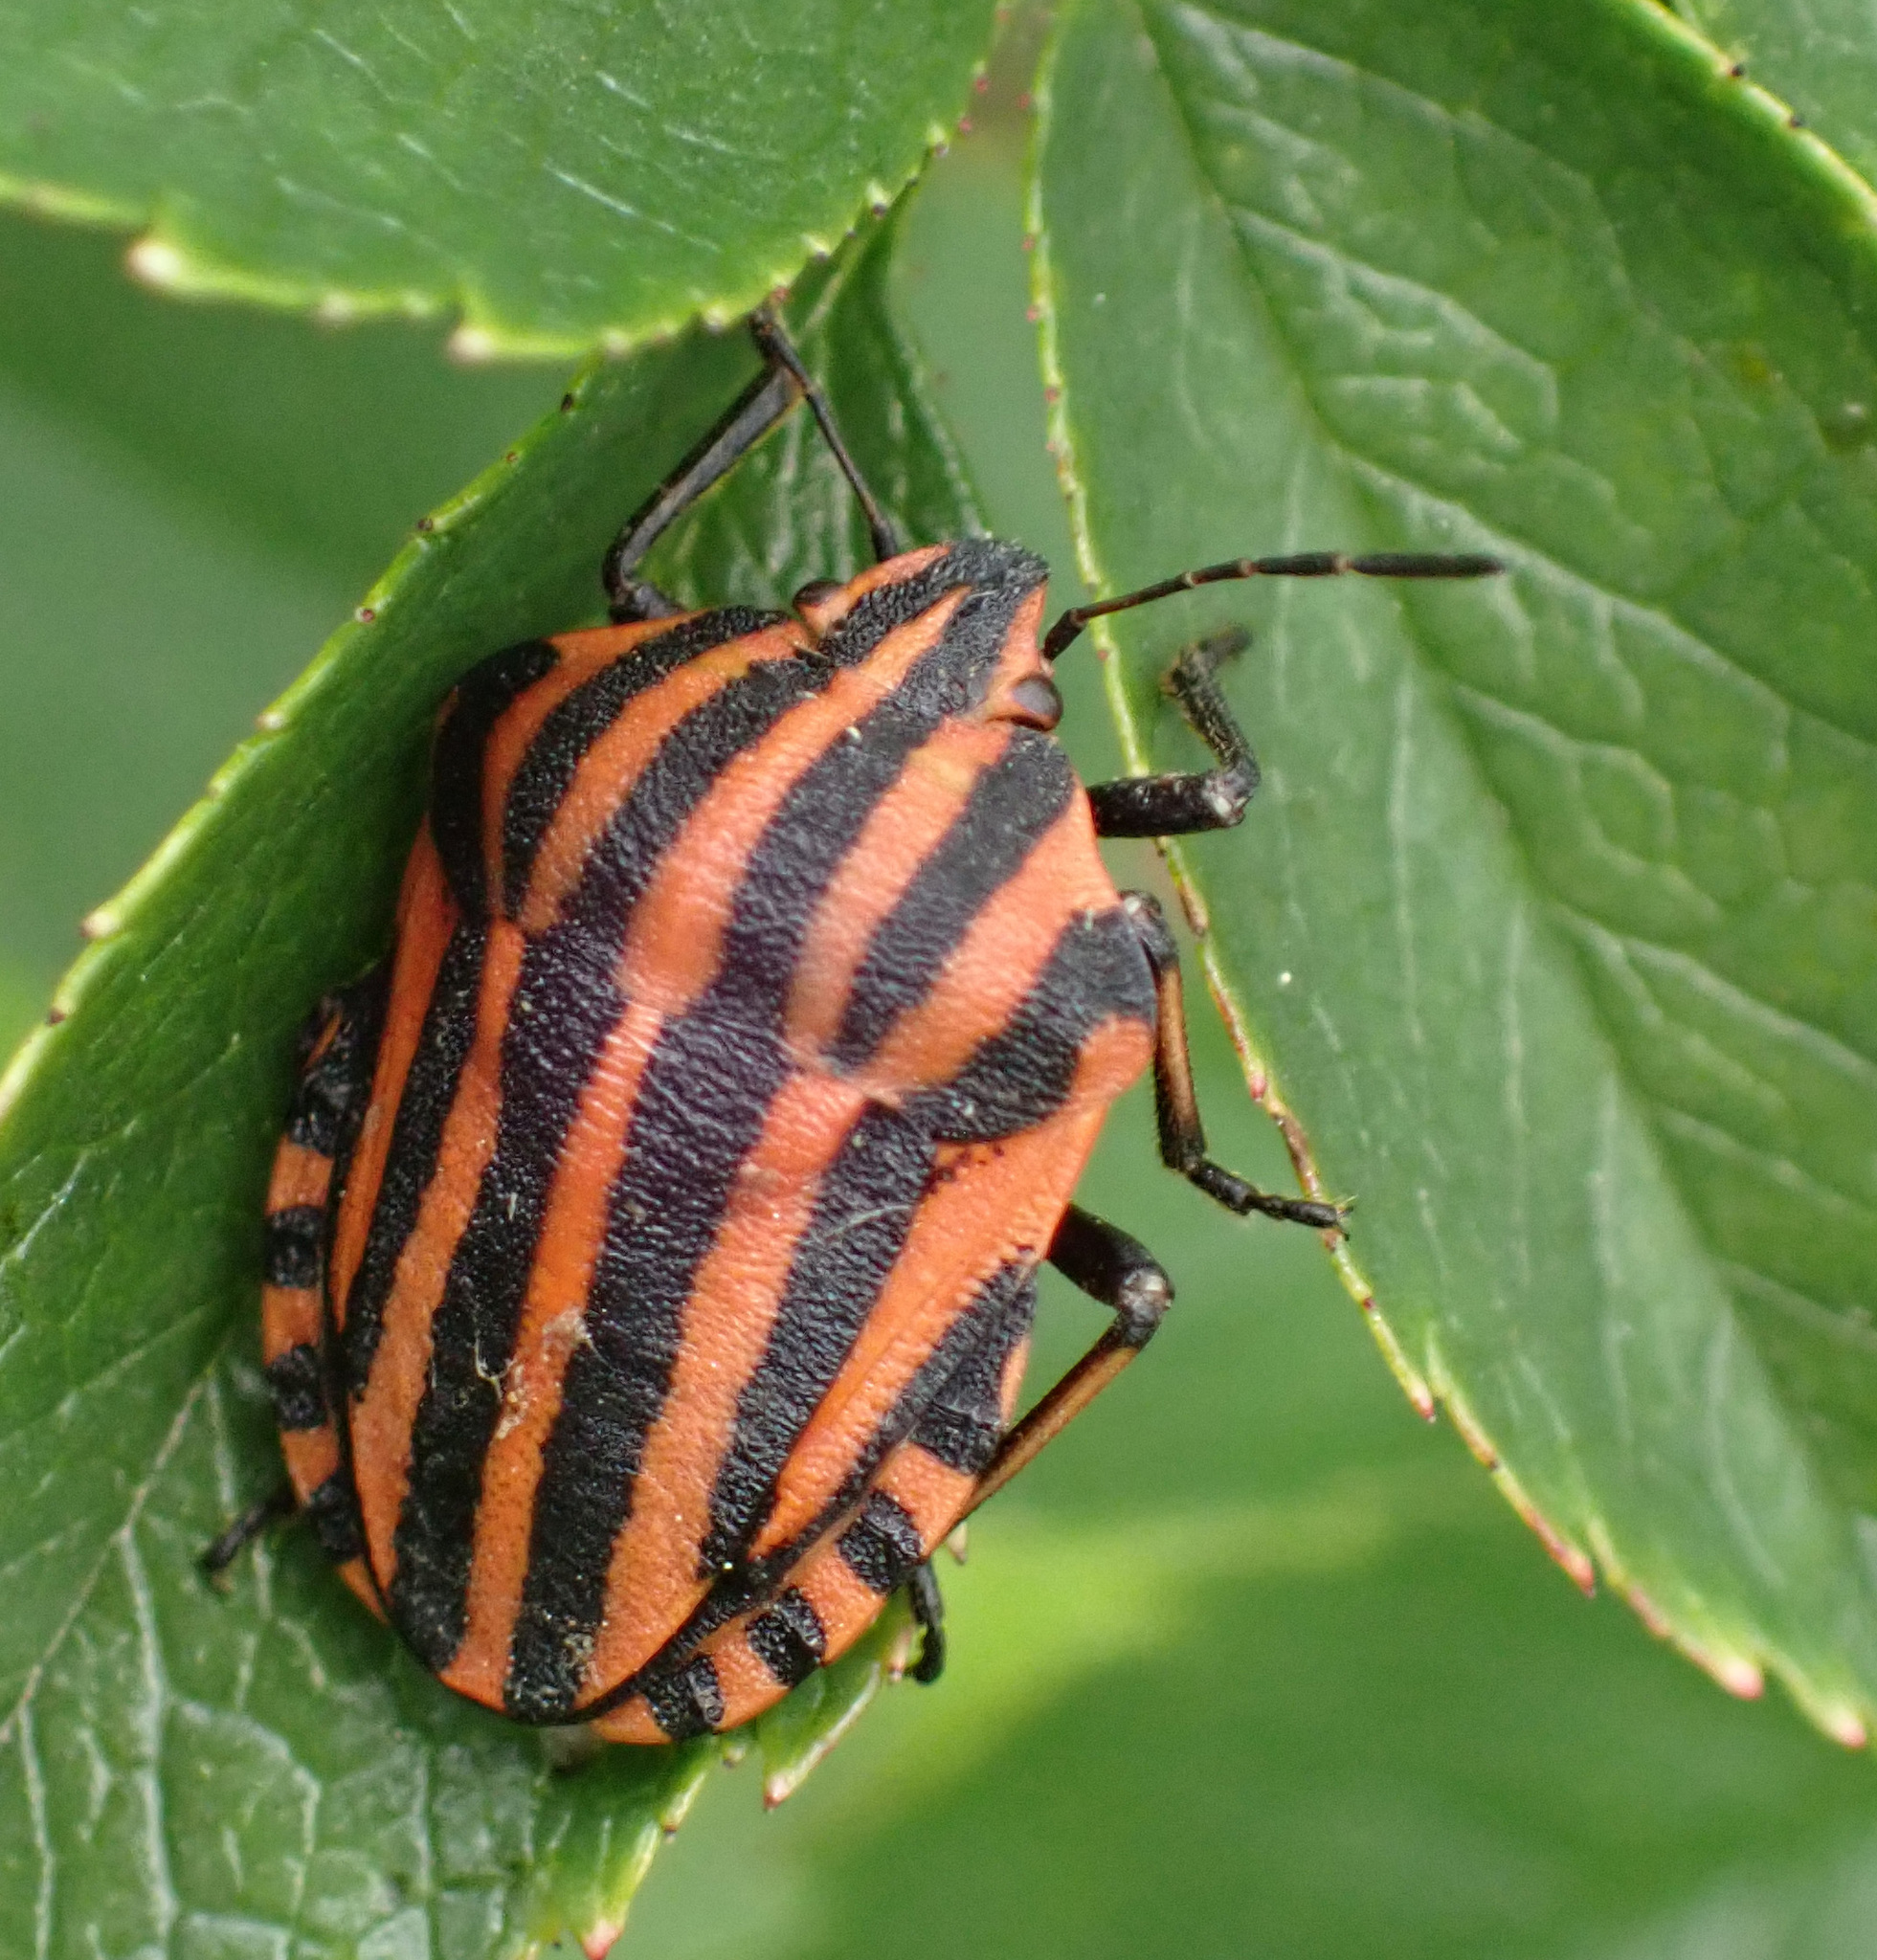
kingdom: Animalia
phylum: Arthropoda
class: Insecta
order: Hemiptera
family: Pentatomidae
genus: Graphosoma
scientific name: Graphosoma italicum
